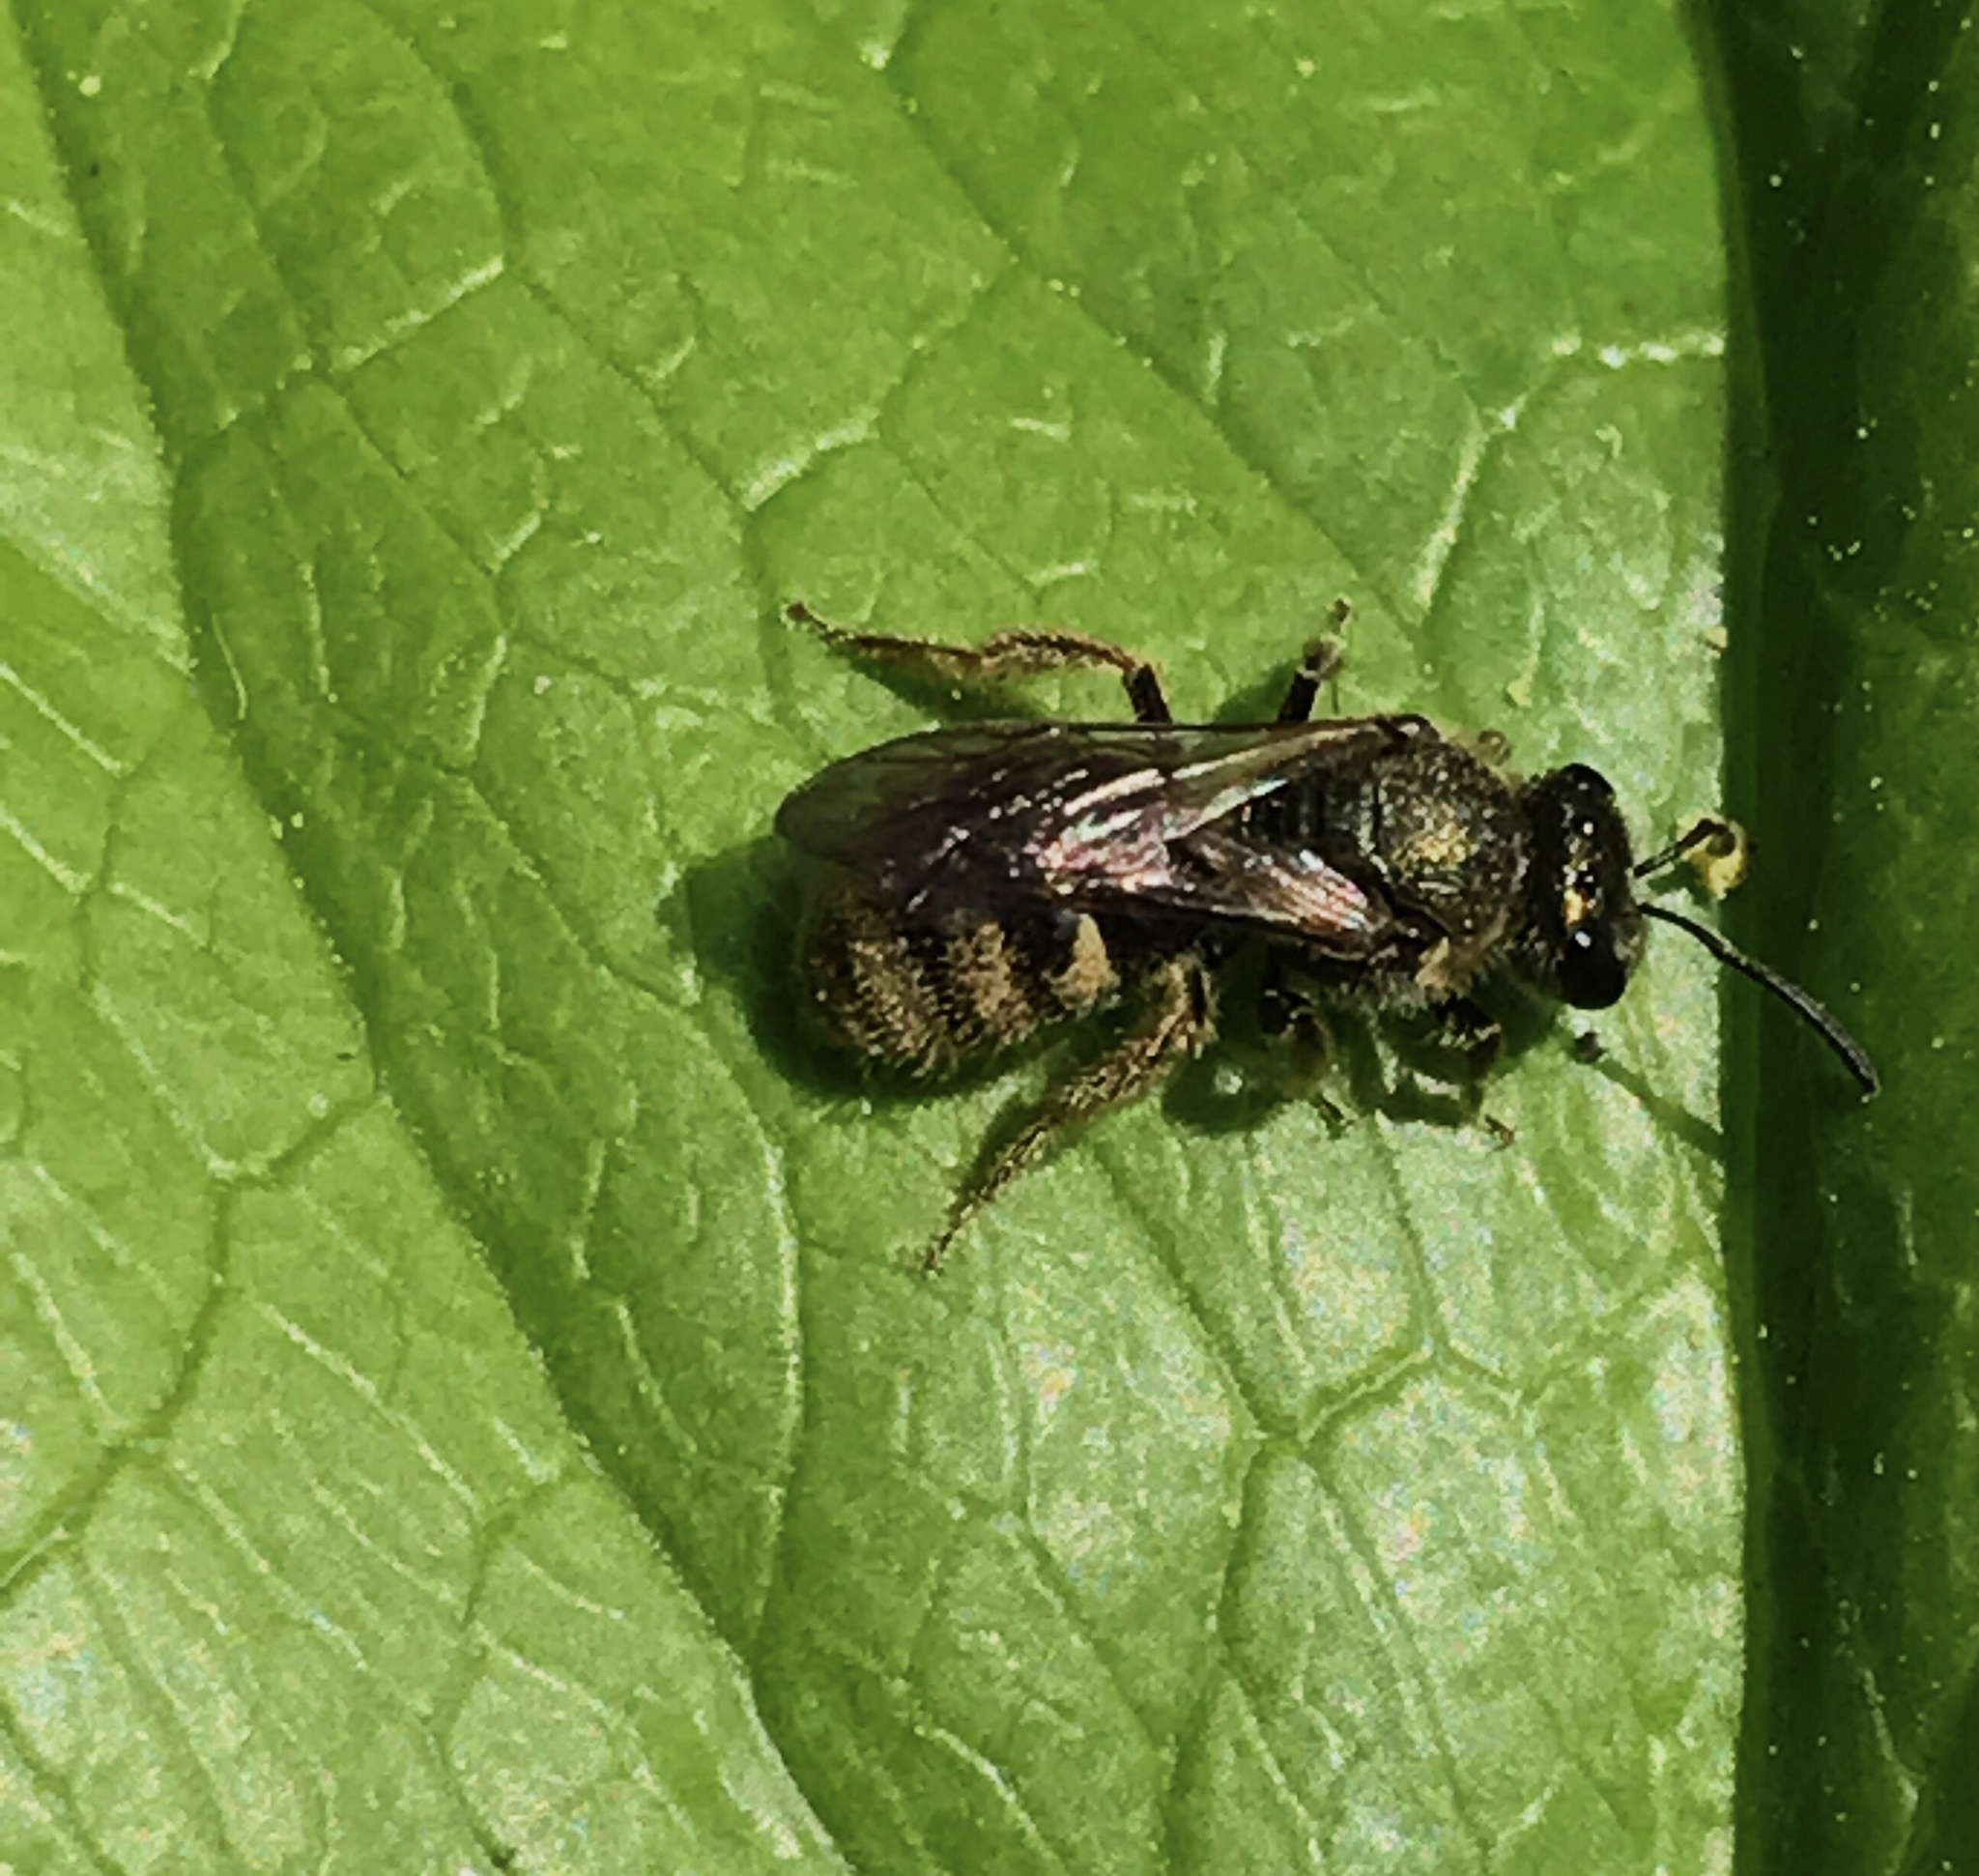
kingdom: Animalia
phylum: Arthropoda
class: Insecta
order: Hymenoptera
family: Halictidae
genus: Dialictus
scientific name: Dialictus
